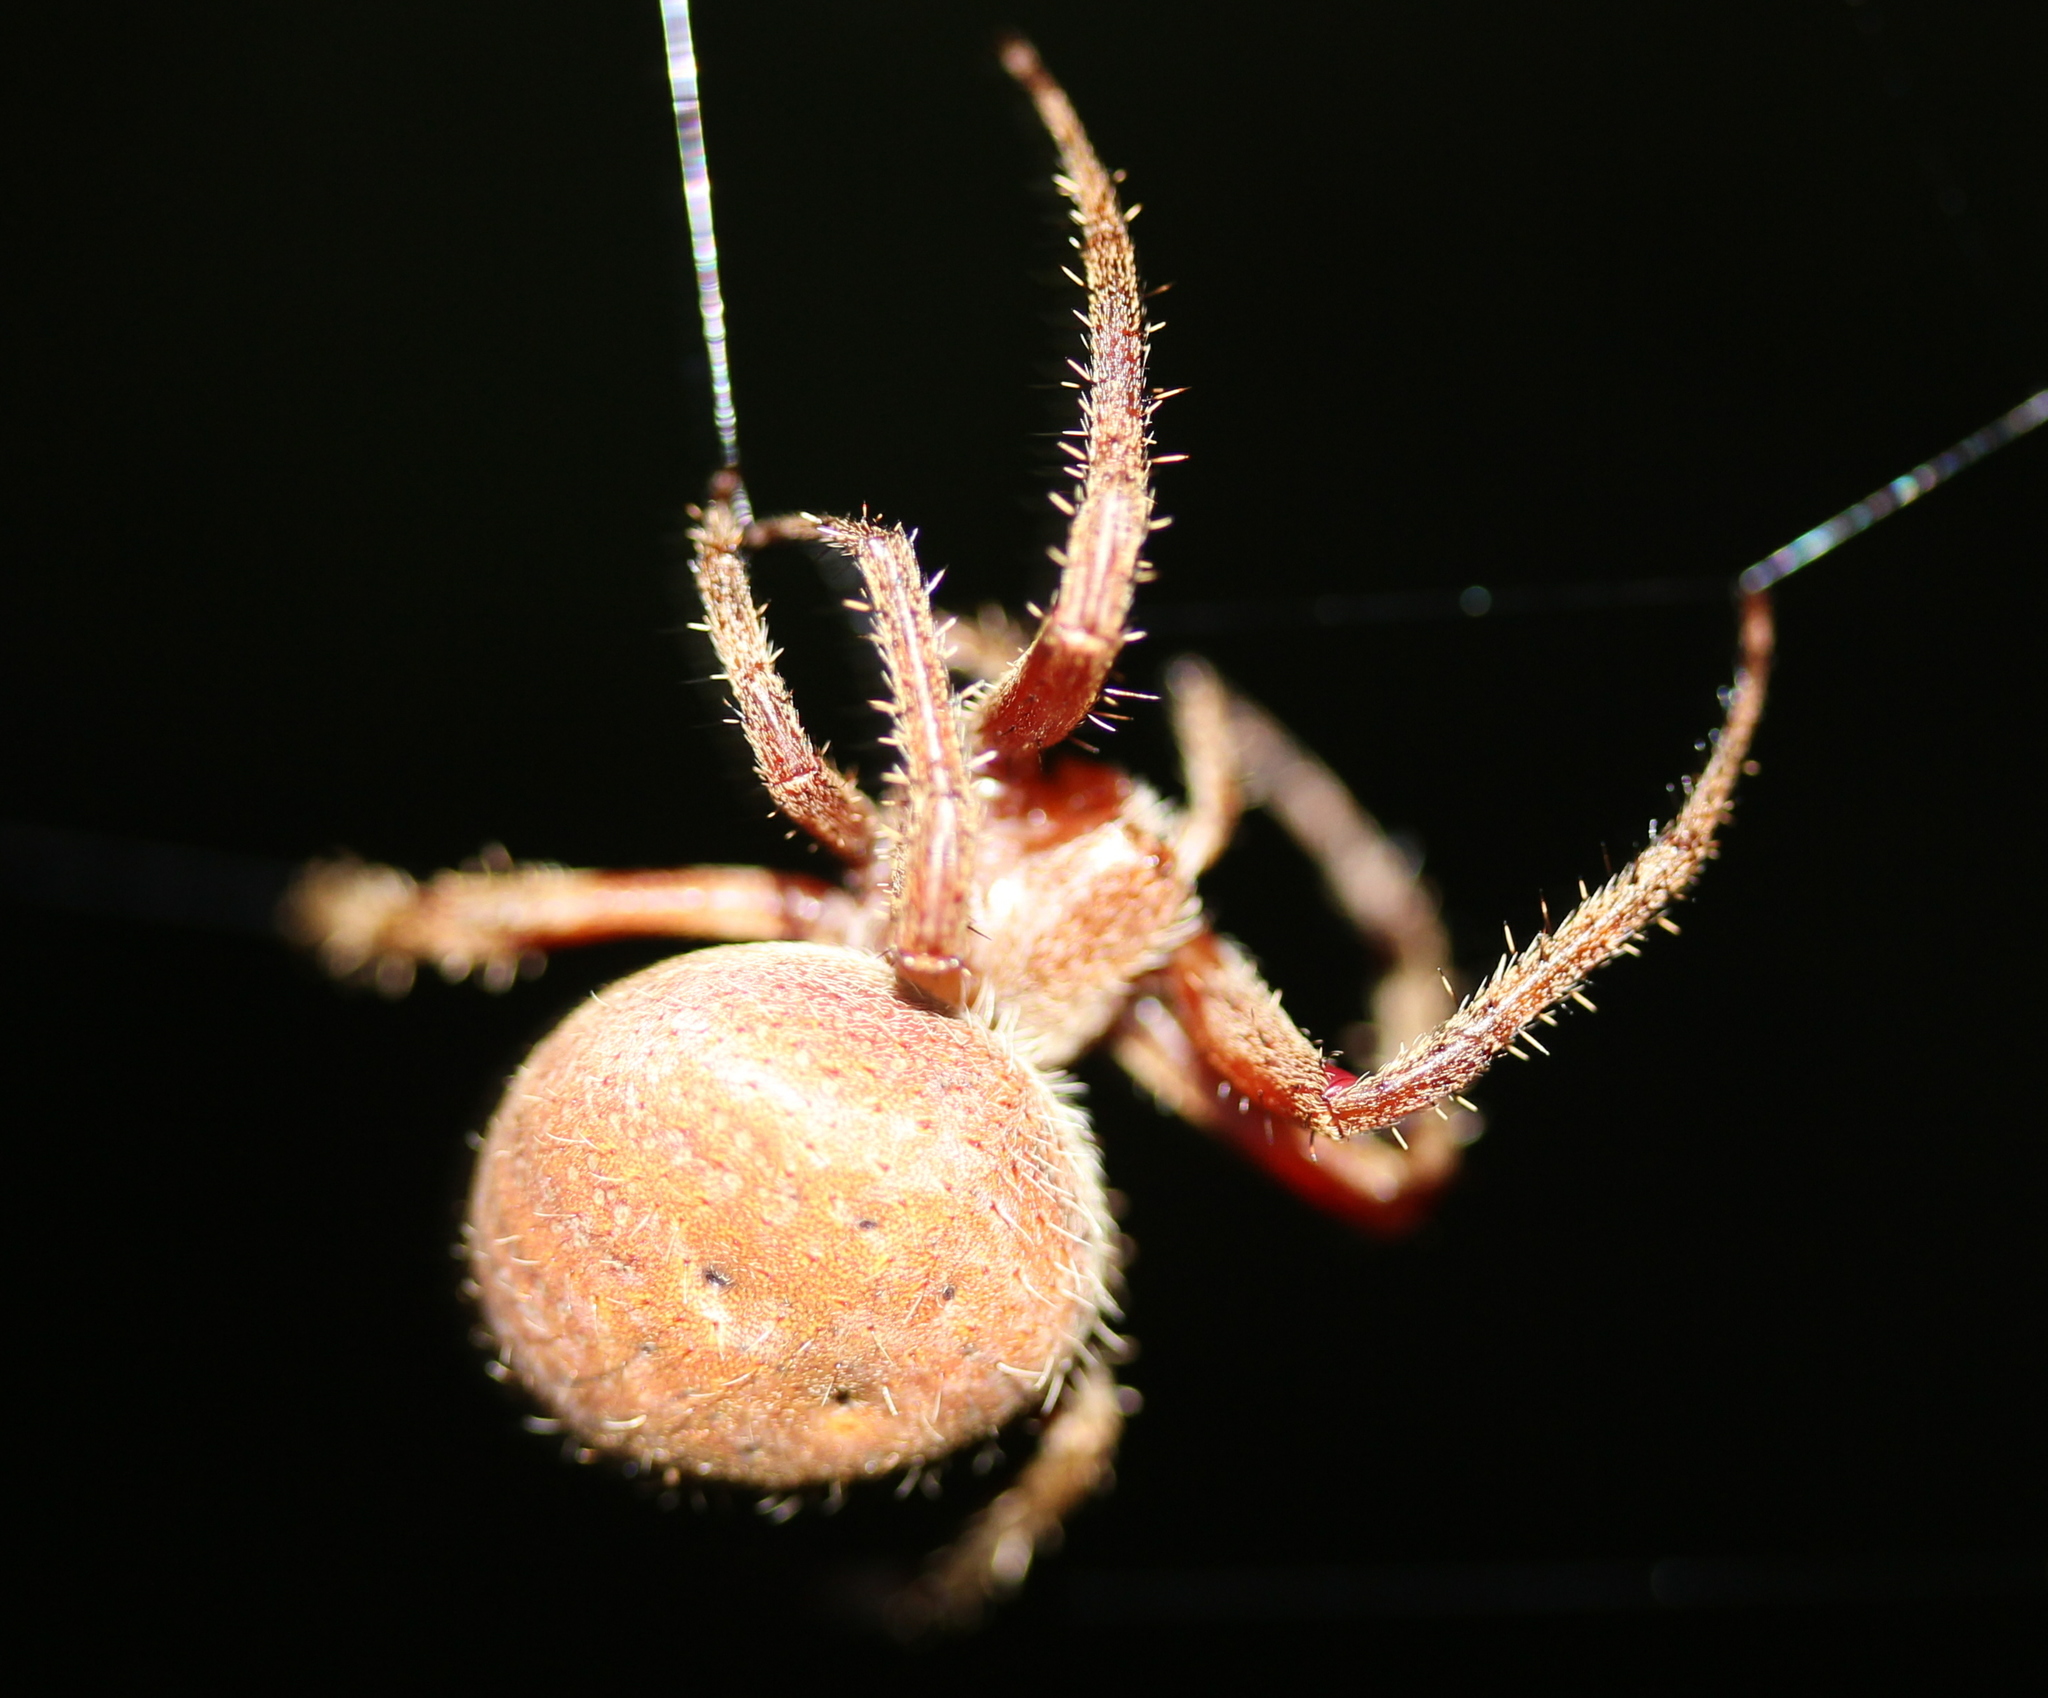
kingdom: Animalia
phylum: Arthropoda
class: Arachnida
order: Araneae
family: Araneidae
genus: Neoscona
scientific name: Neoscona crucifera
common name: Spotted orbweaver
